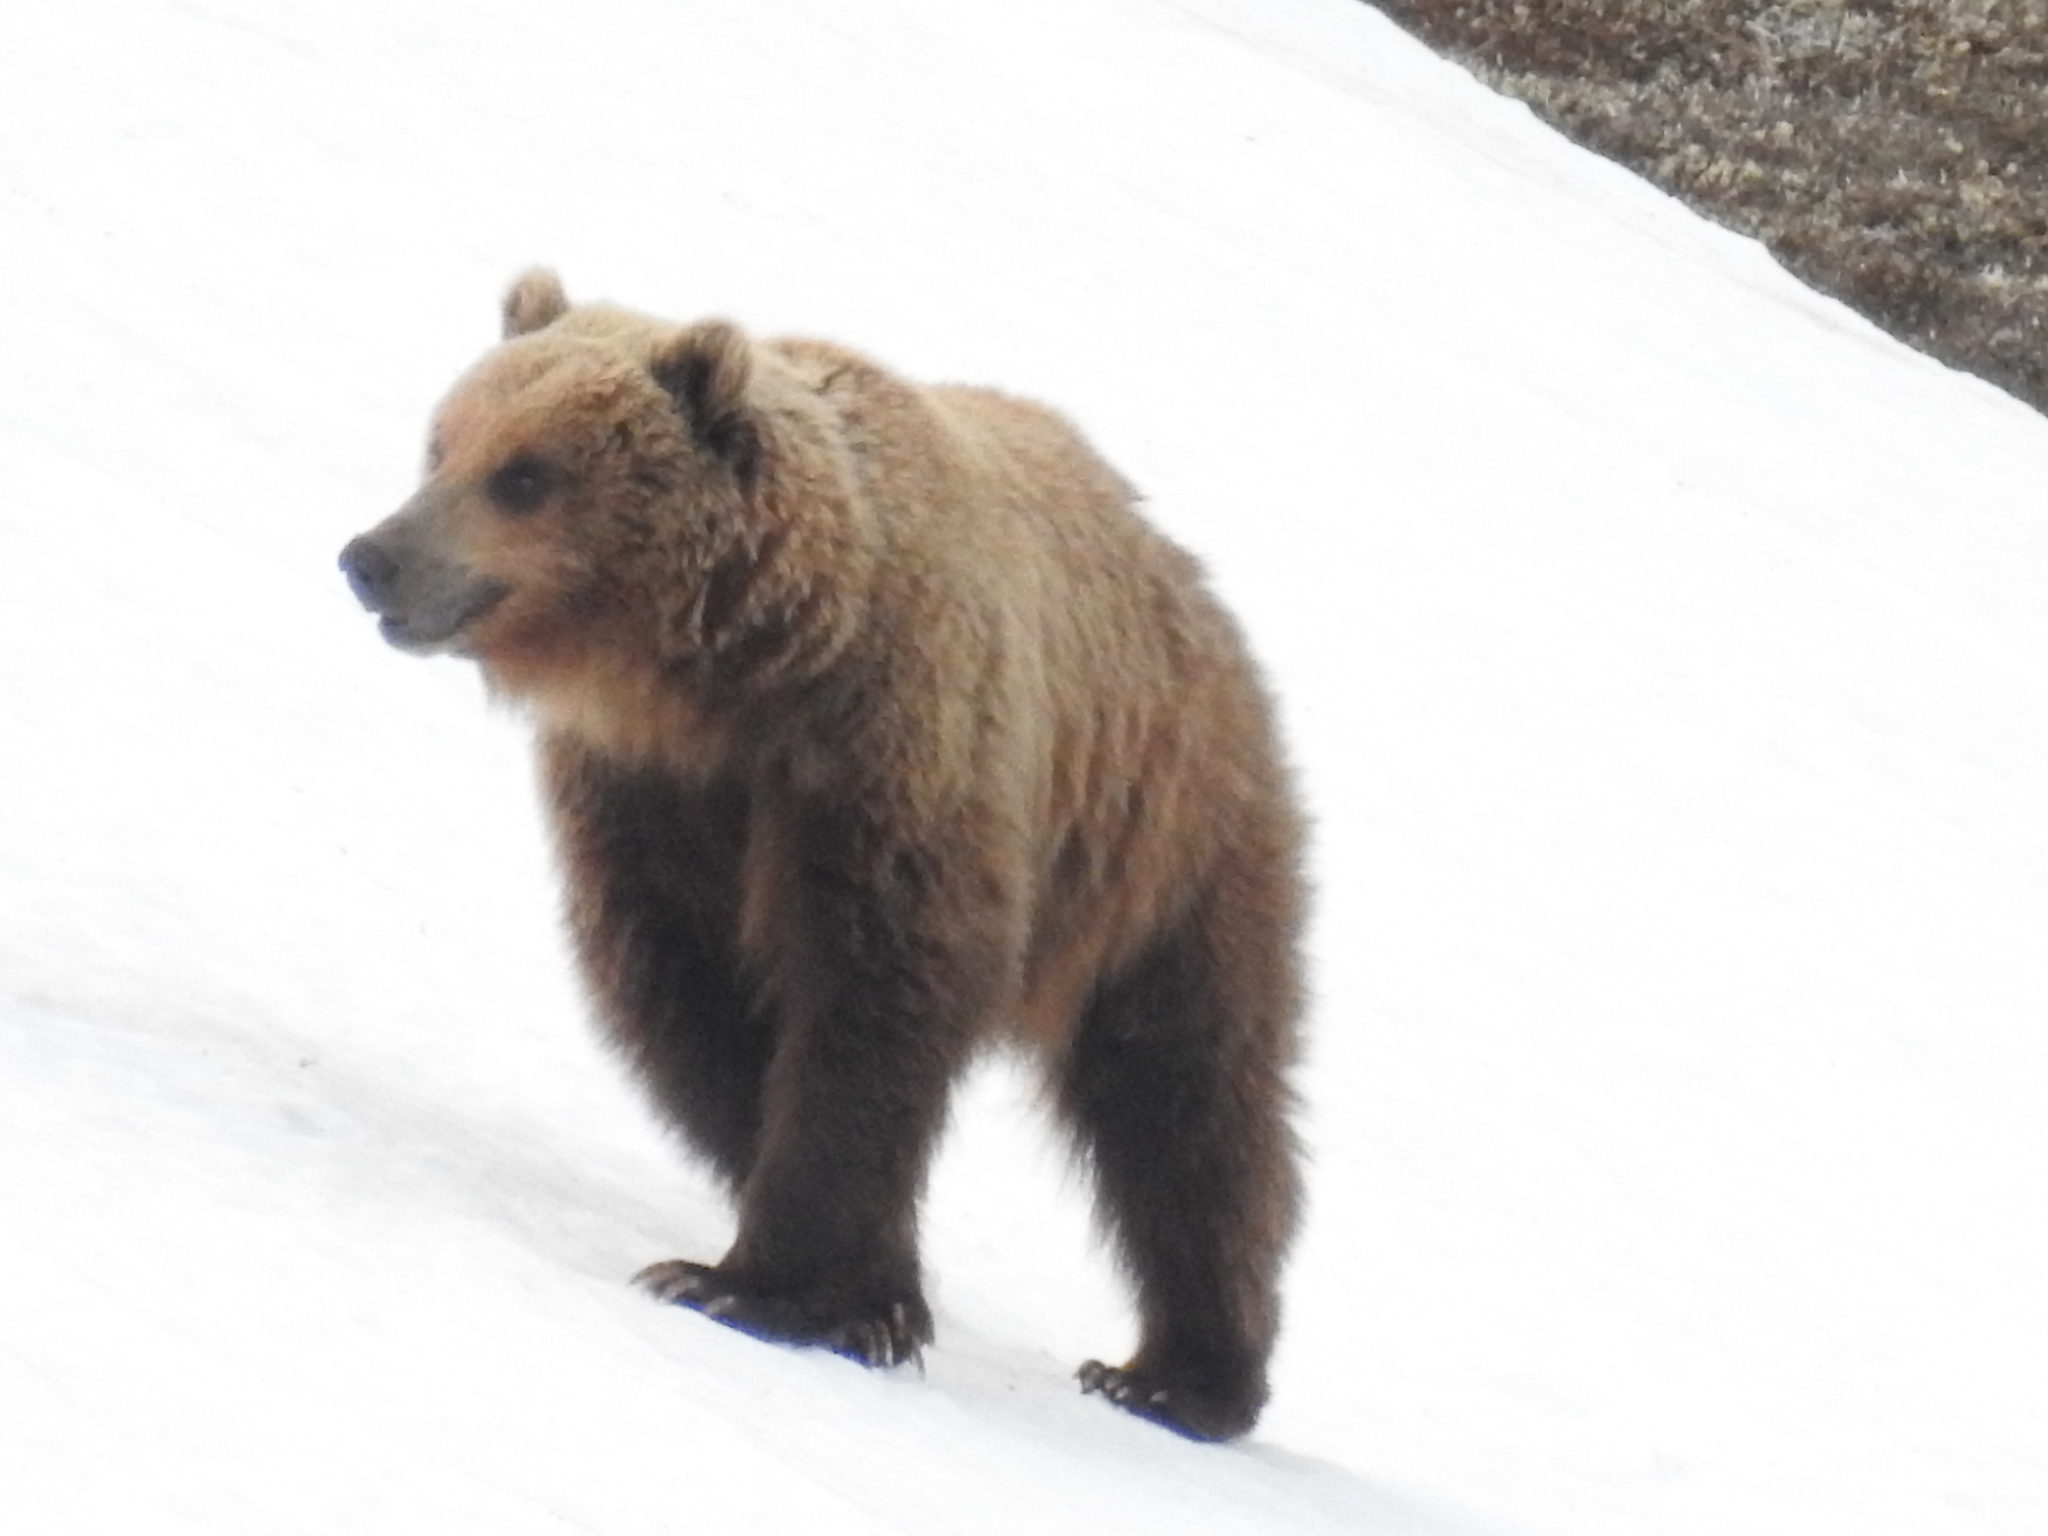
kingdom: Animalia
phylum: Chordata
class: Mammalia
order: Carnivora
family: Ursidae
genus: Ursus
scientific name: Ursus arctos
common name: Brown bear
